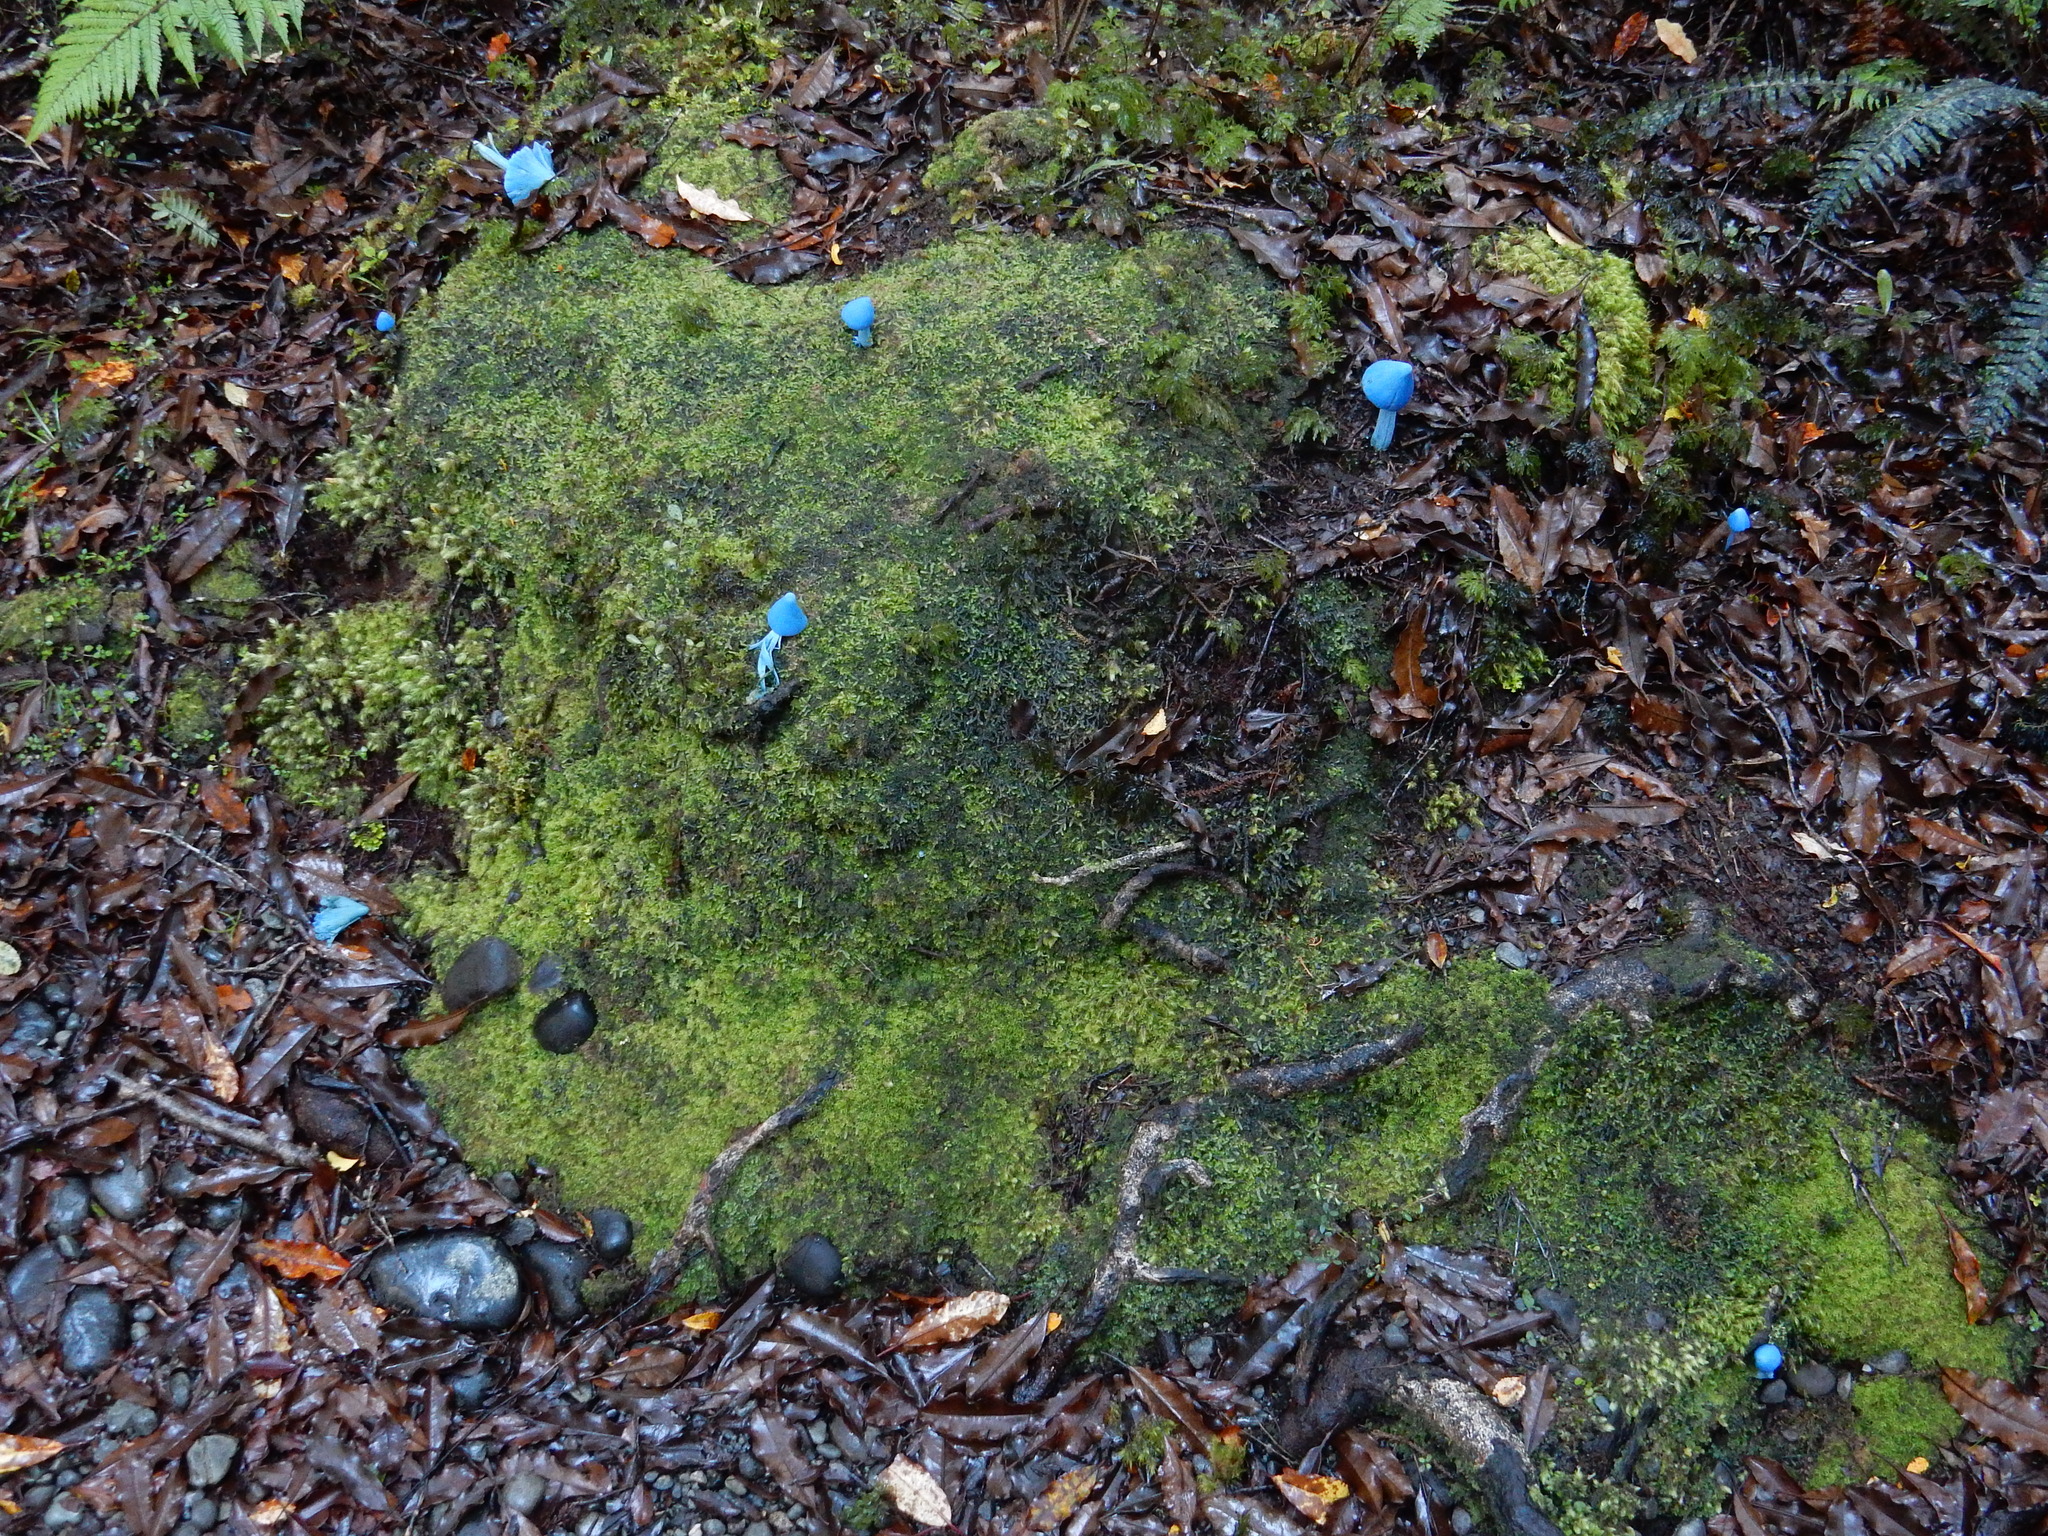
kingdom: Fungi
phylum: Basidiomycota
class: Agaricomycetes
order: Agaricales
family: Entolomataceae
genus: Entoloma
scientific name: Entoloma hochstetteri
